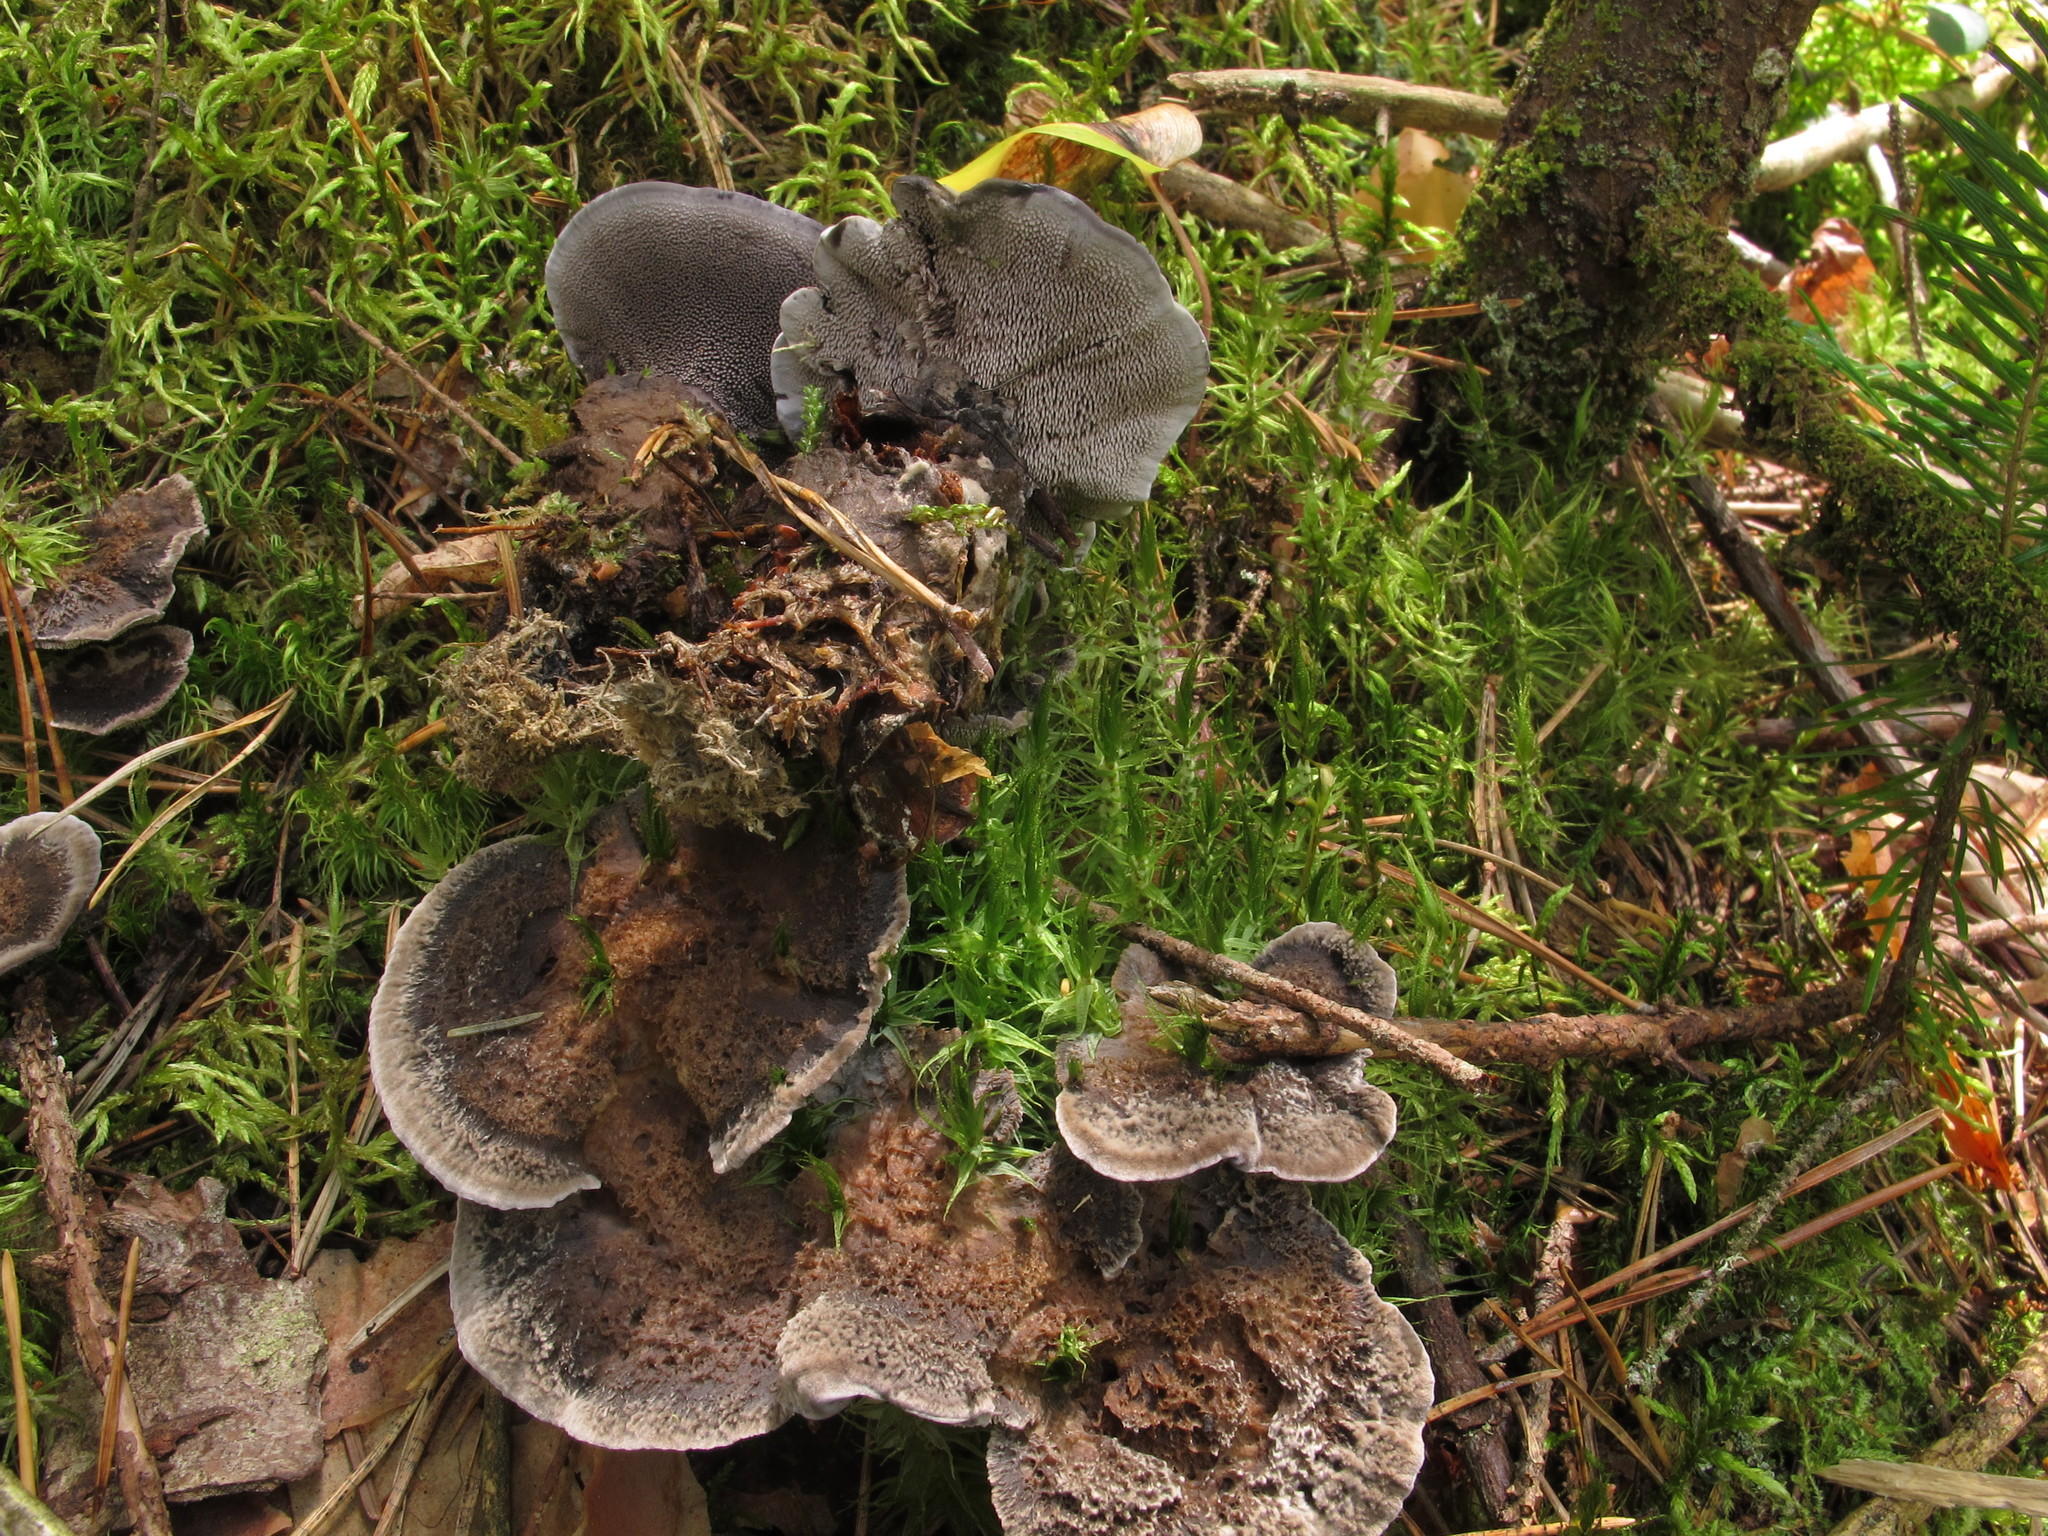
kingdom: Fungi
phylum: Basidiomycota
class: Agaricomycetes
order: Thelephorales
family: Thelephoraceae
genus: Phellodon
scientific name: Phellodon niger
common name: Black tooth
